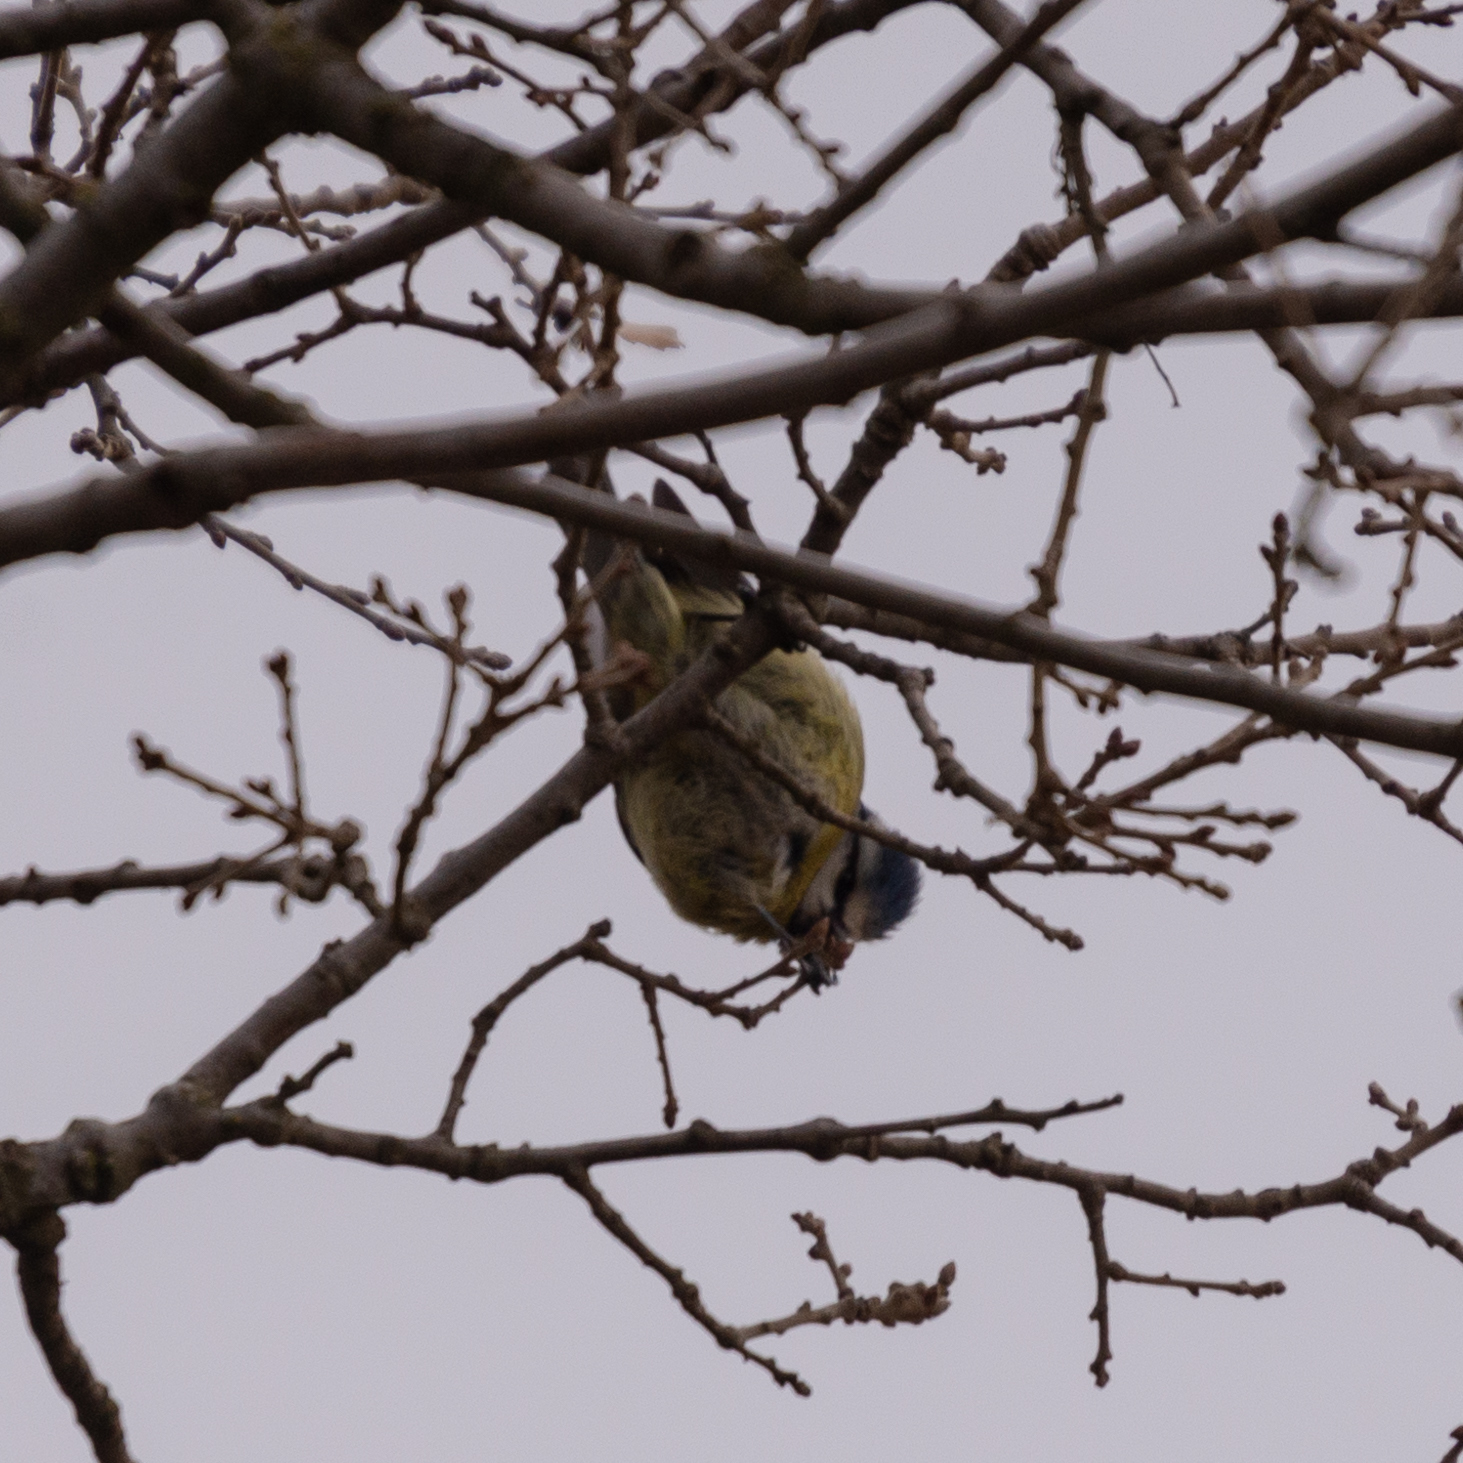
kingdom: Animalia
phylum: Chordata
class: Aves
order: Passeriformes
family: Paridae
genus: Cyanistes
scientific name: Cyanistes caeruleus
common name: Eurasian blue tit
